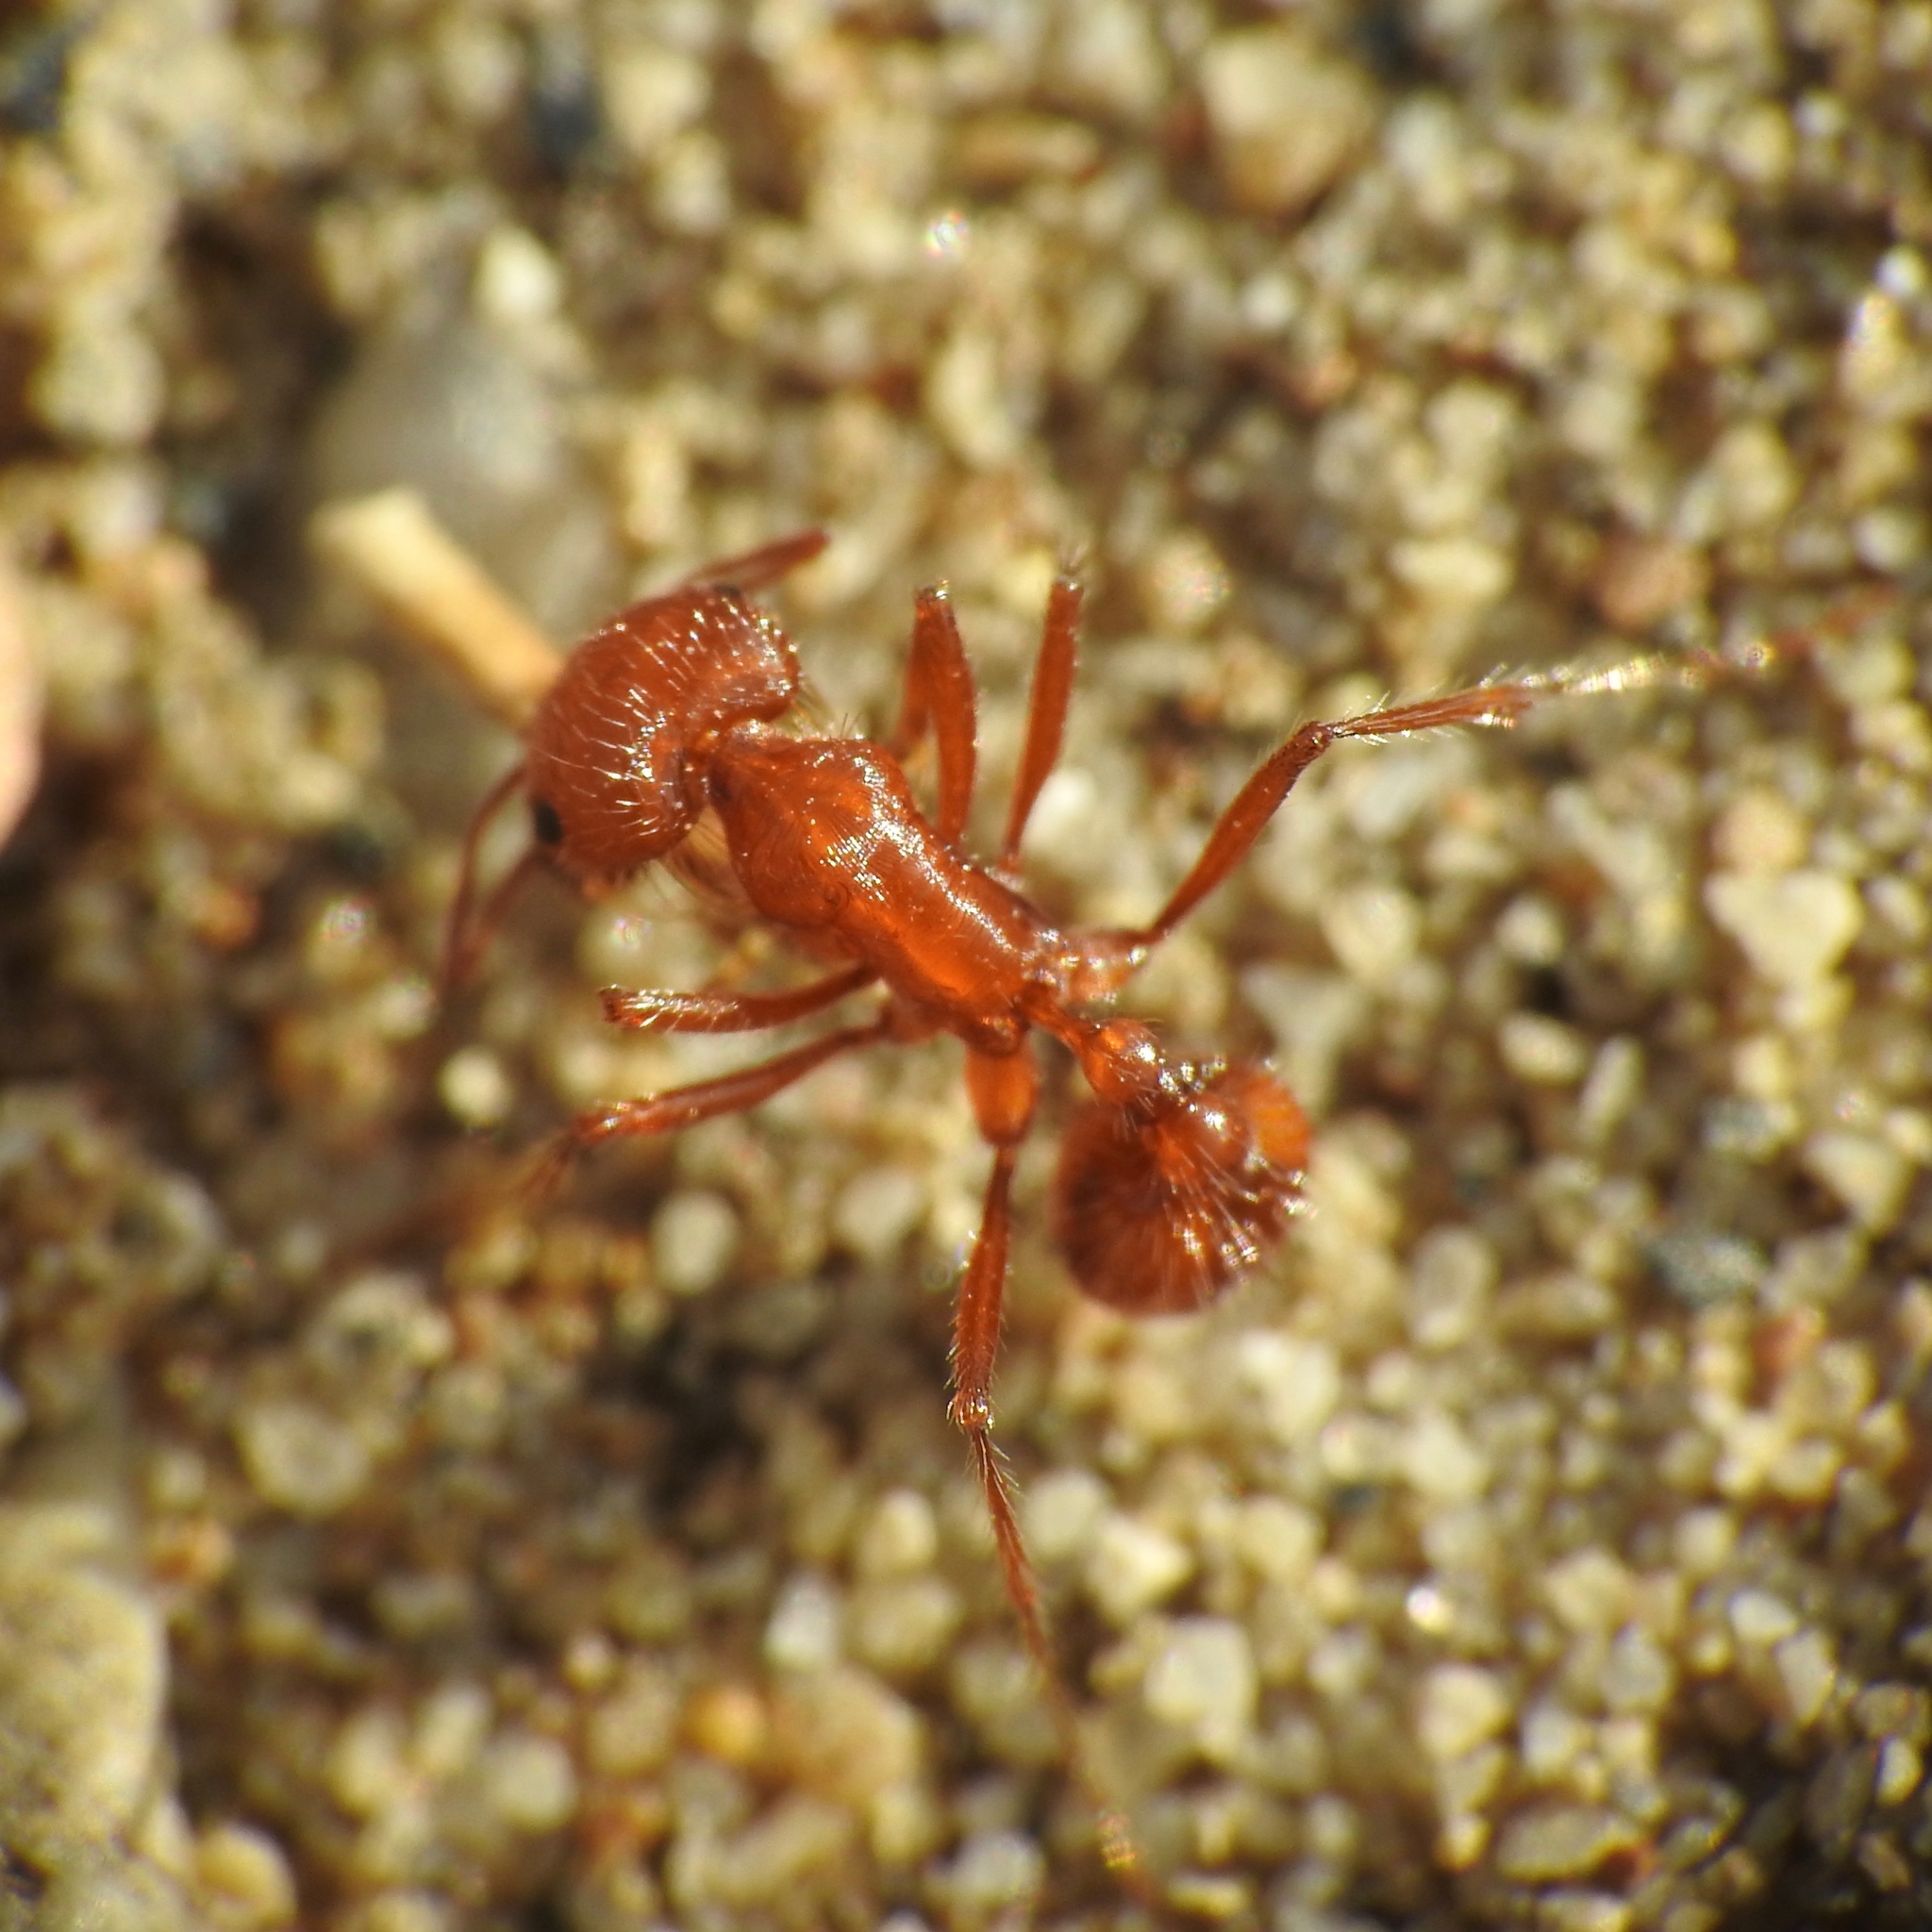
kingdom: Animalia
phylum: Arthropoda
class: Insecta
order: Hymenoptera
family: Formicidae
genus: Pogonomyrmex
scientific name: Pogonomyrmex californicus
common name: California harvester ant
